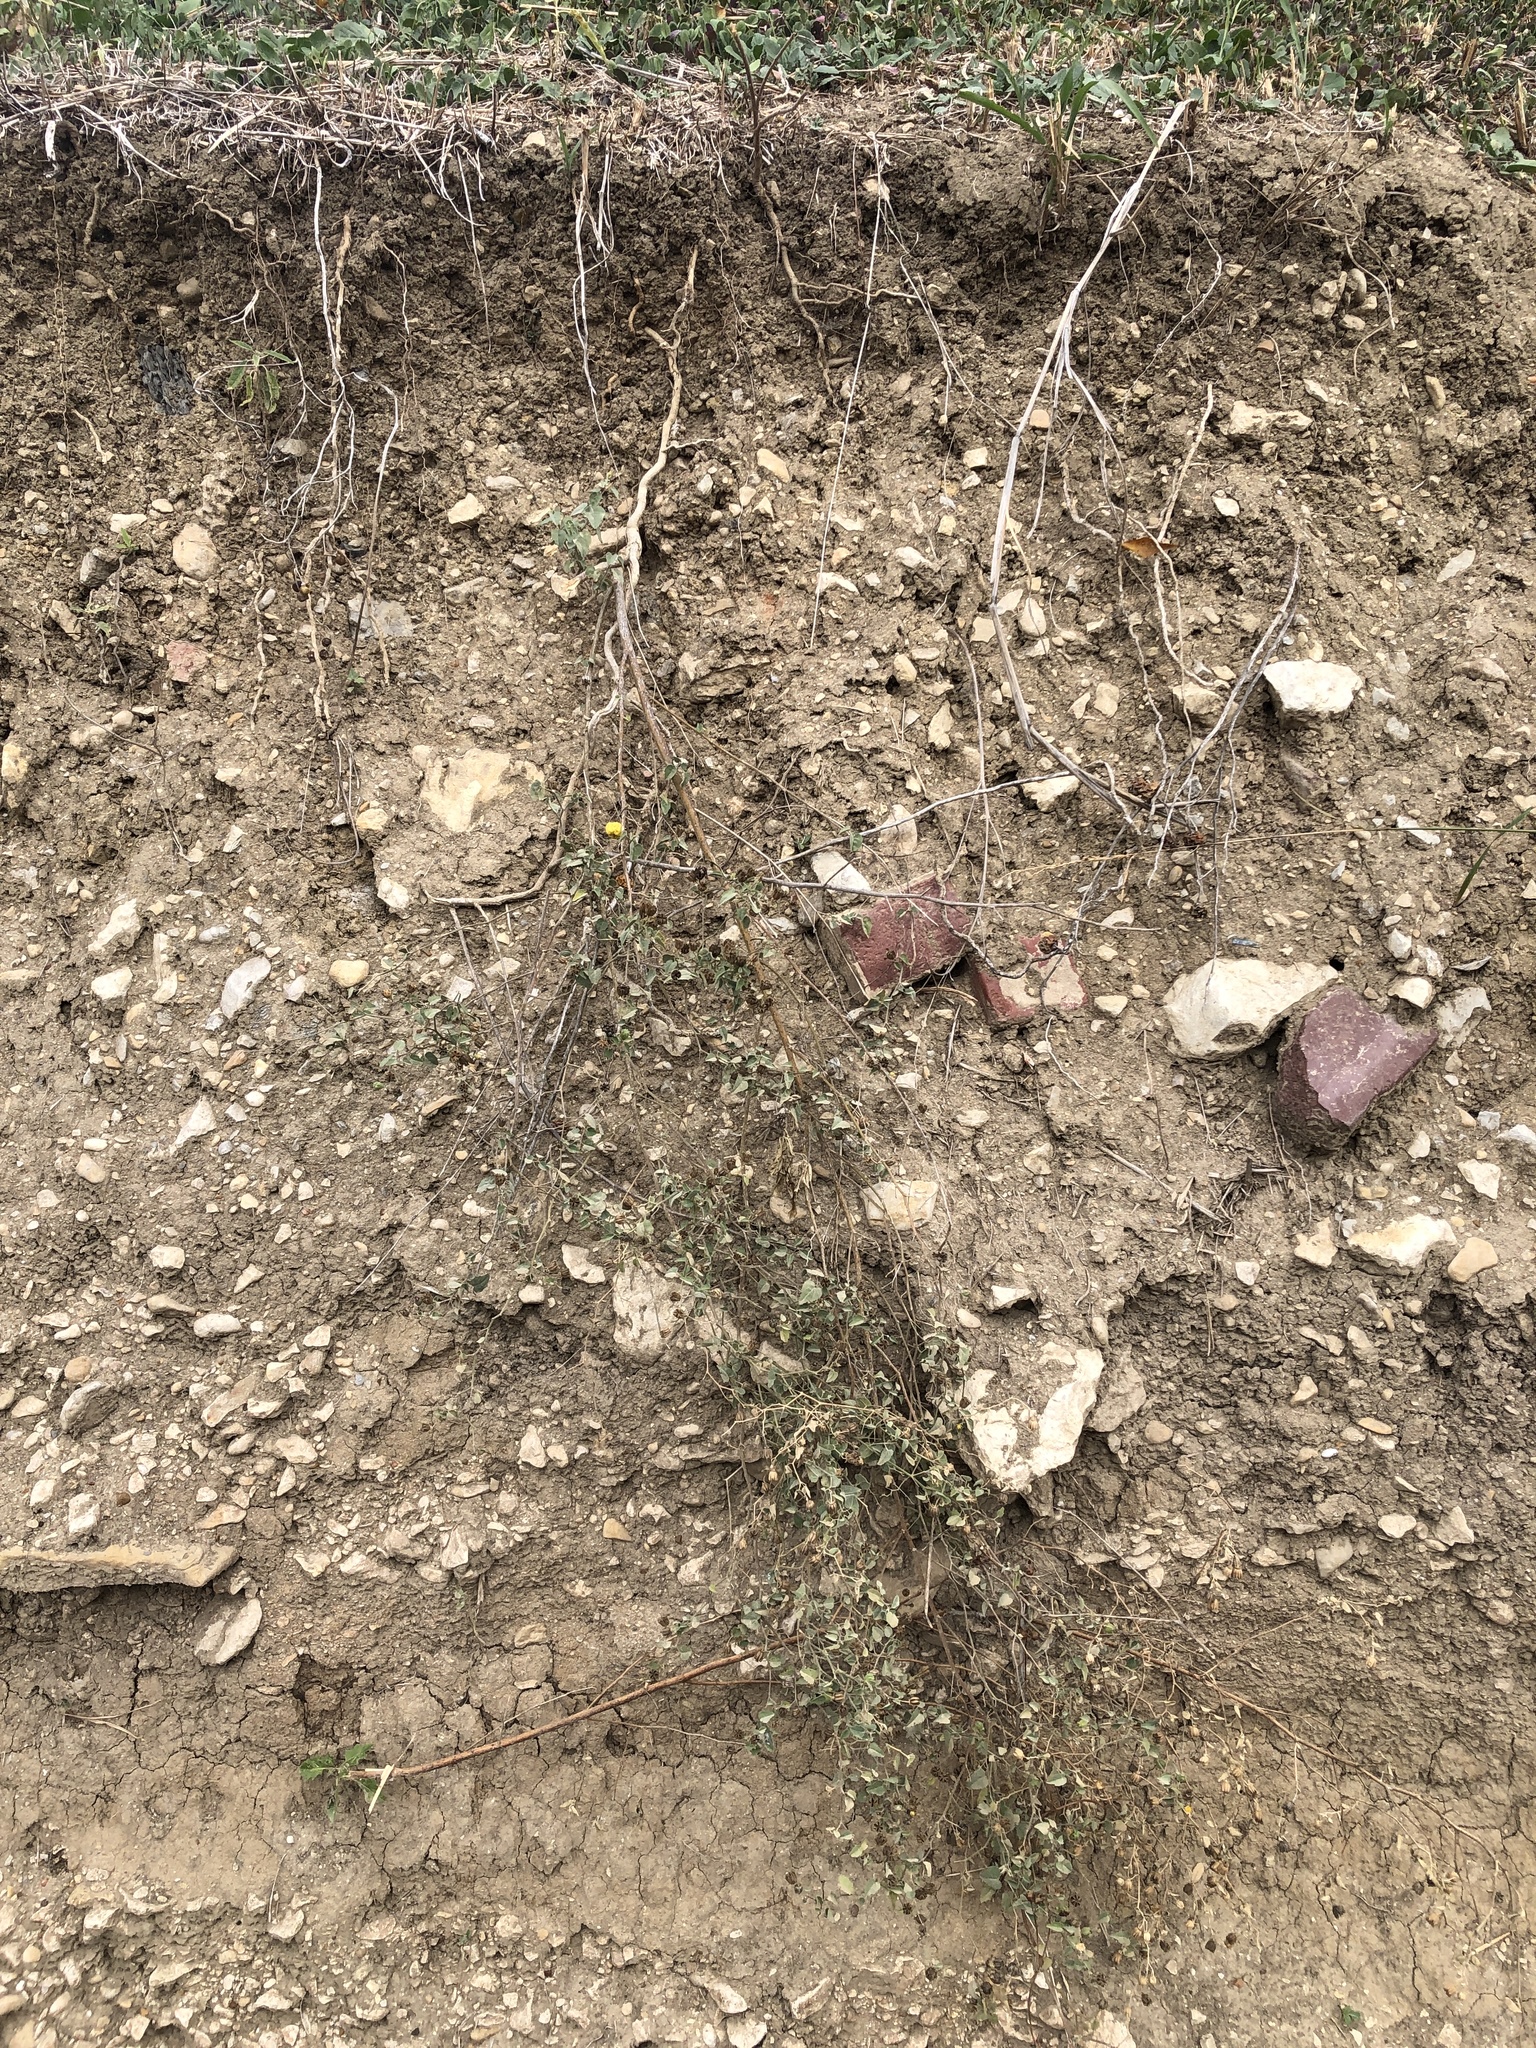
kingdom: Plantae
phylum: Tracheophyta
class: Magnoliopsida
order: Malvales
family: Malvaceae
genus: Abutilon
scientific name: Abutilon fruticosum
